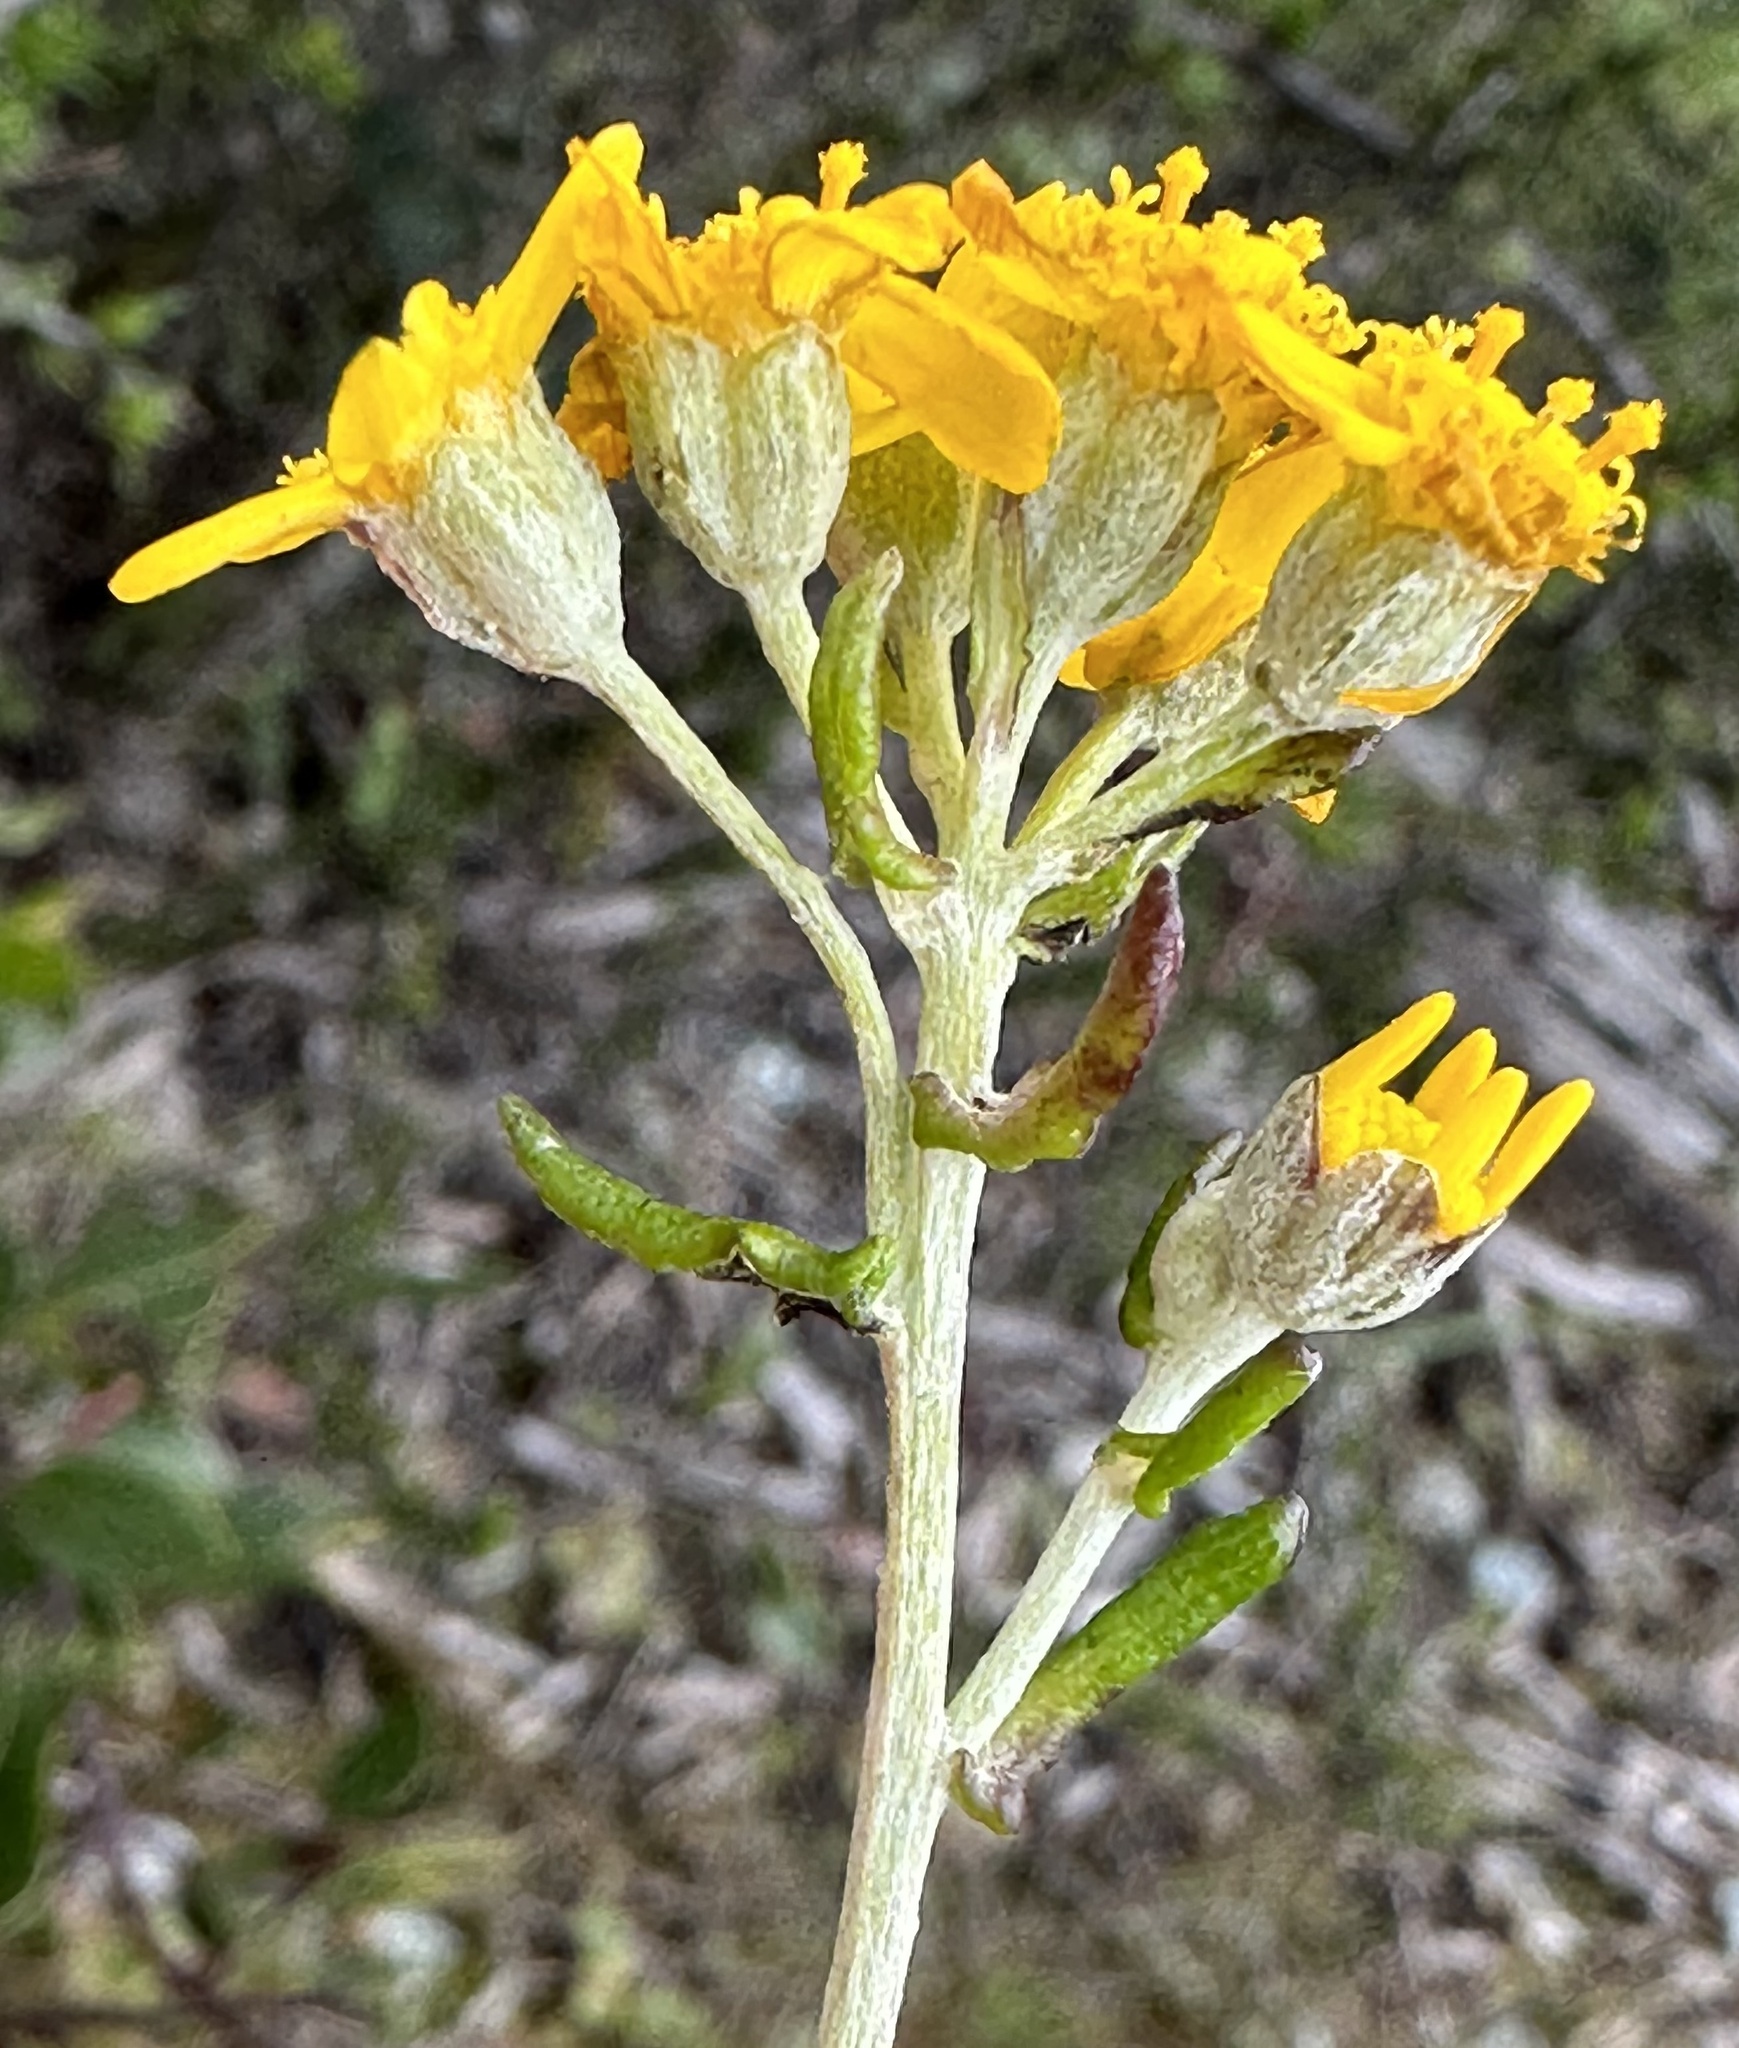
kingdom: Plantae
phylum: Tracheophyta
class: Magnoliopsida
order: Asterales
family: Asteraceae
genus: Eriophyllum
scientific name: Eriophyllum confertiflorum
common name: Golden-yarrow
